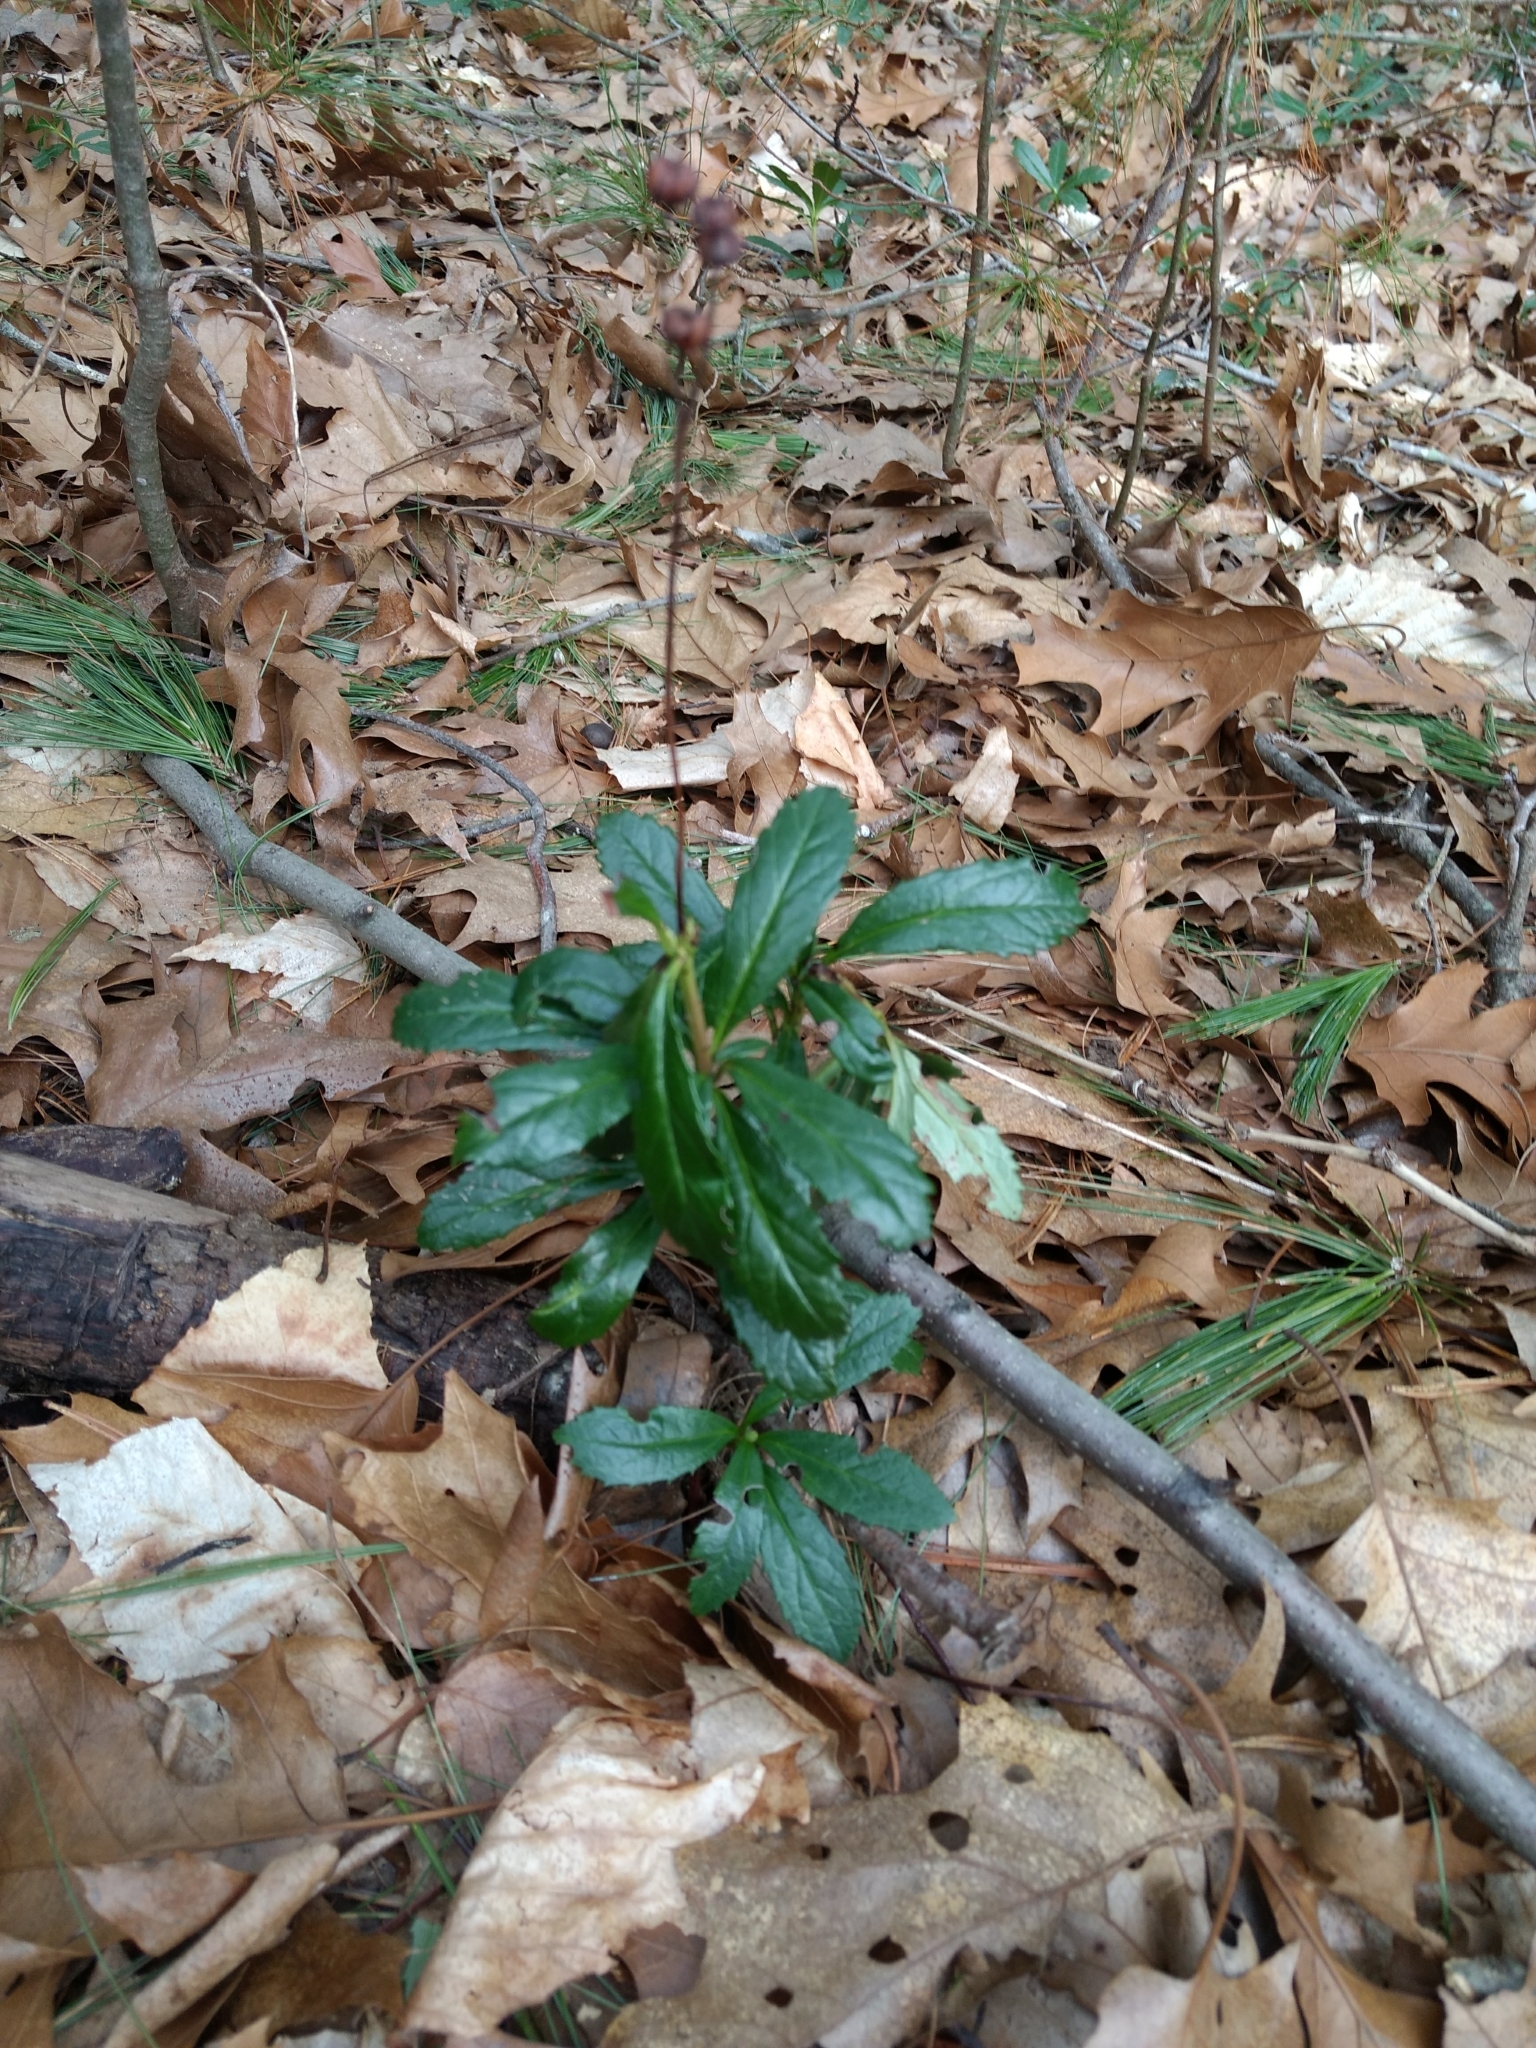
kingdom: Plantae
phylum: Tracheophyta
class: Magnoliopsida
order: Ericales
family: Ericaceae
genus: Chimaphila
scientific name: Chimaphila umbellata
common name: Pipsissewa
